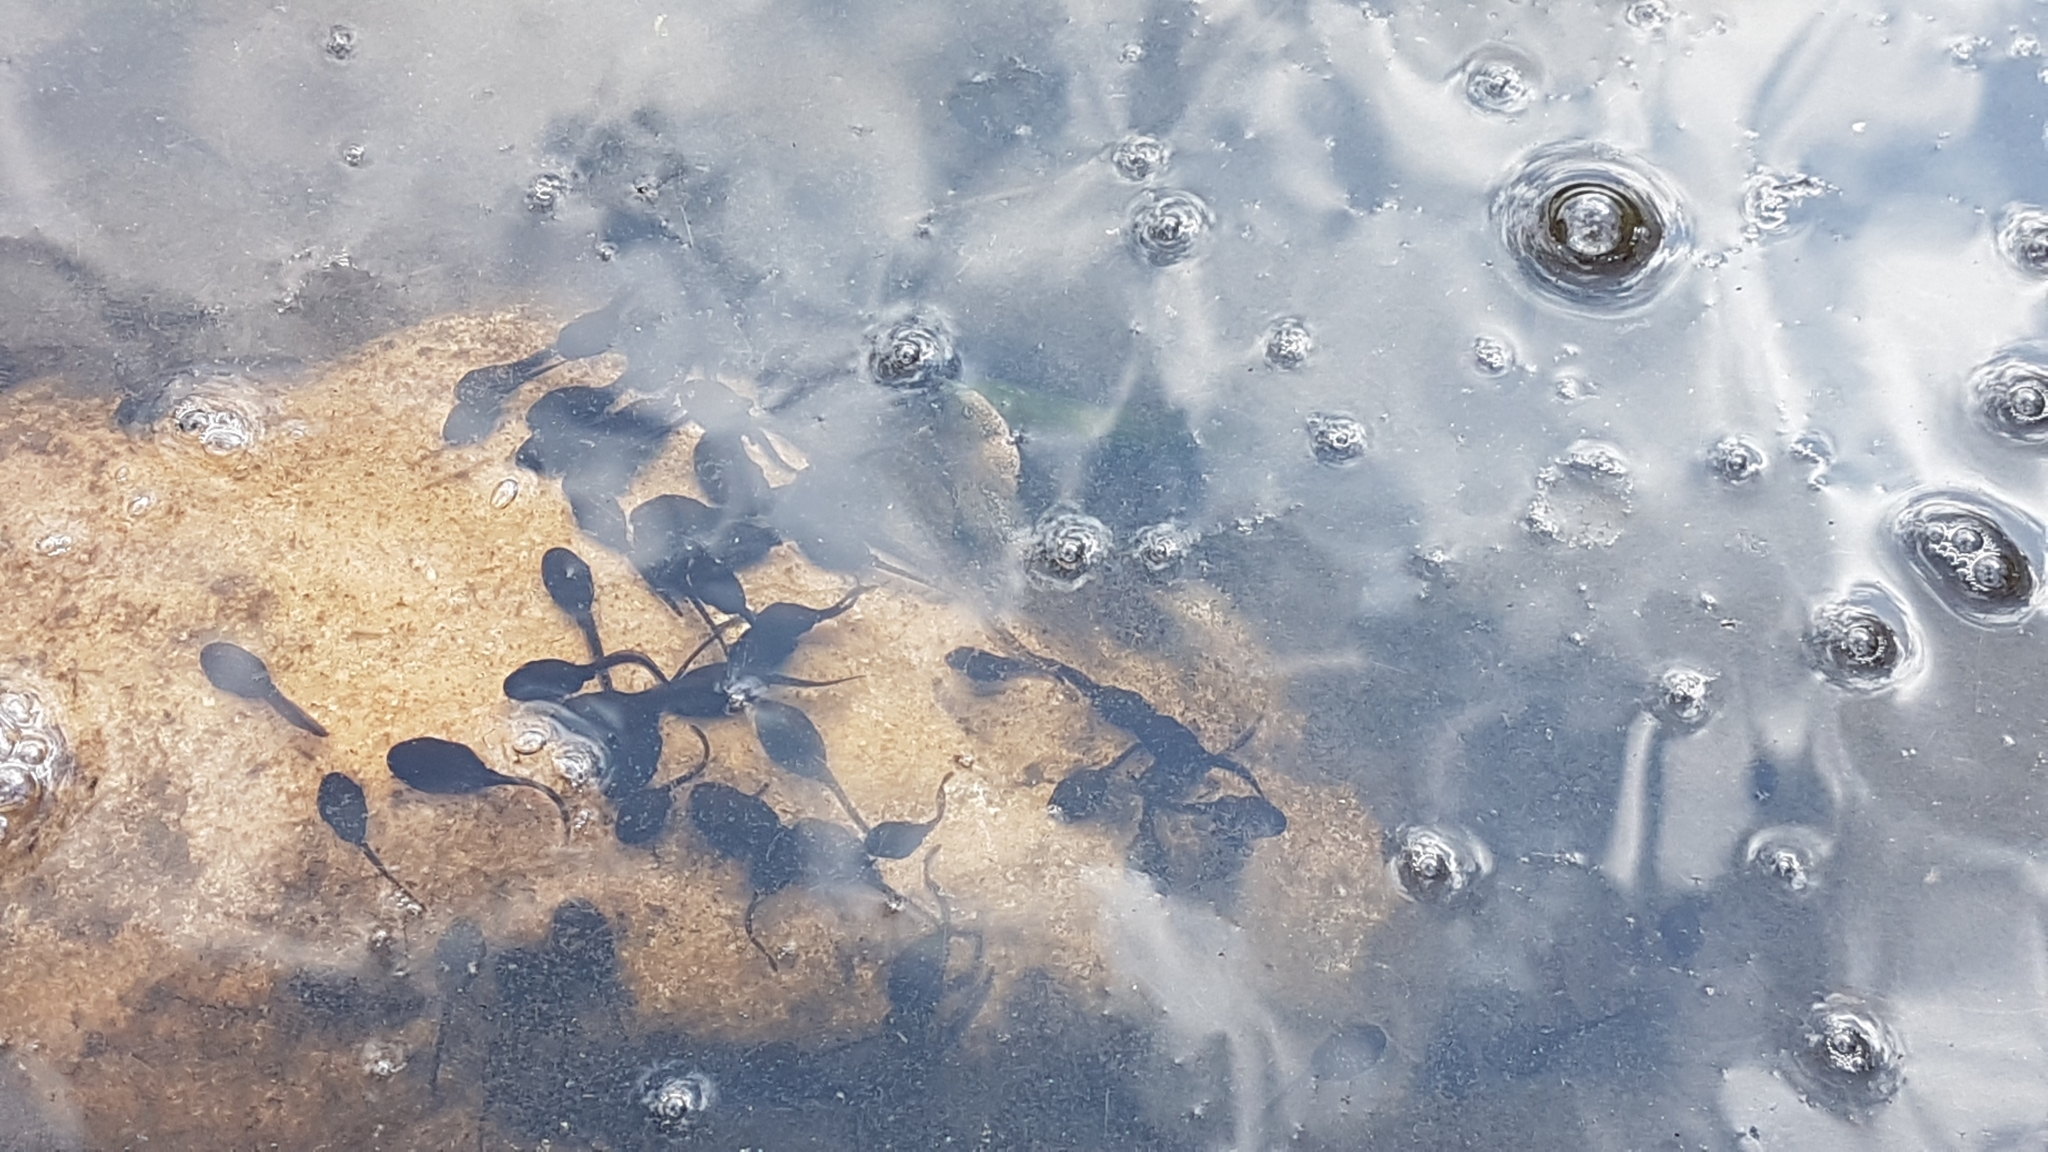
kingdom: Animalia
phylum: Chordata
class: Amphibia
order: Anura
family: Bufonidae
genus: Bufo
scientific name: Bufo bufo
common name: Common toad
